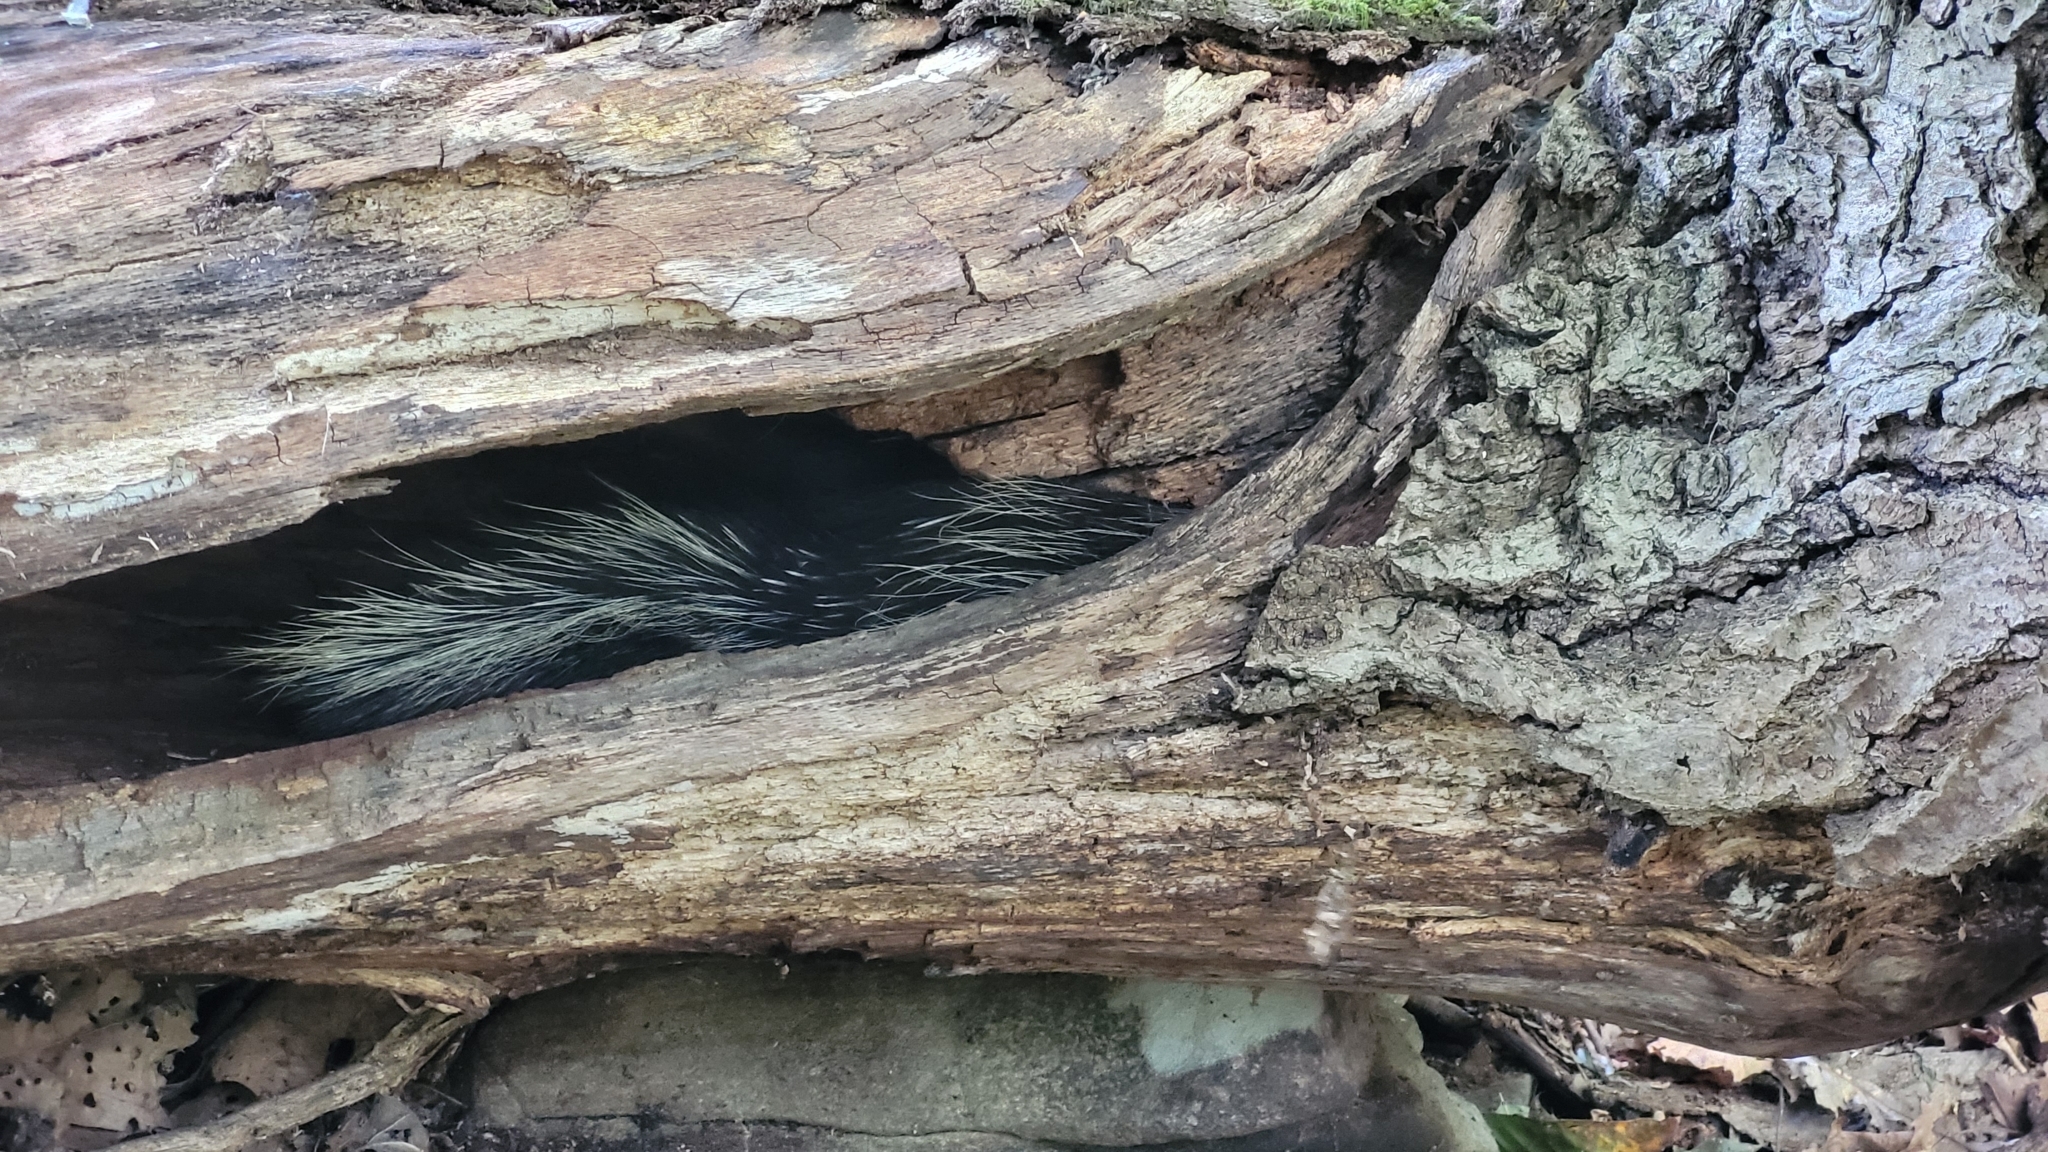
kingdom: Animalia
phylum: Chordata
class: Mammalia
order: Rodentia
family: Erethizontidae
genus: Erethizon
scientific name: Erethizon dorsatus
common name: North american porcupine
